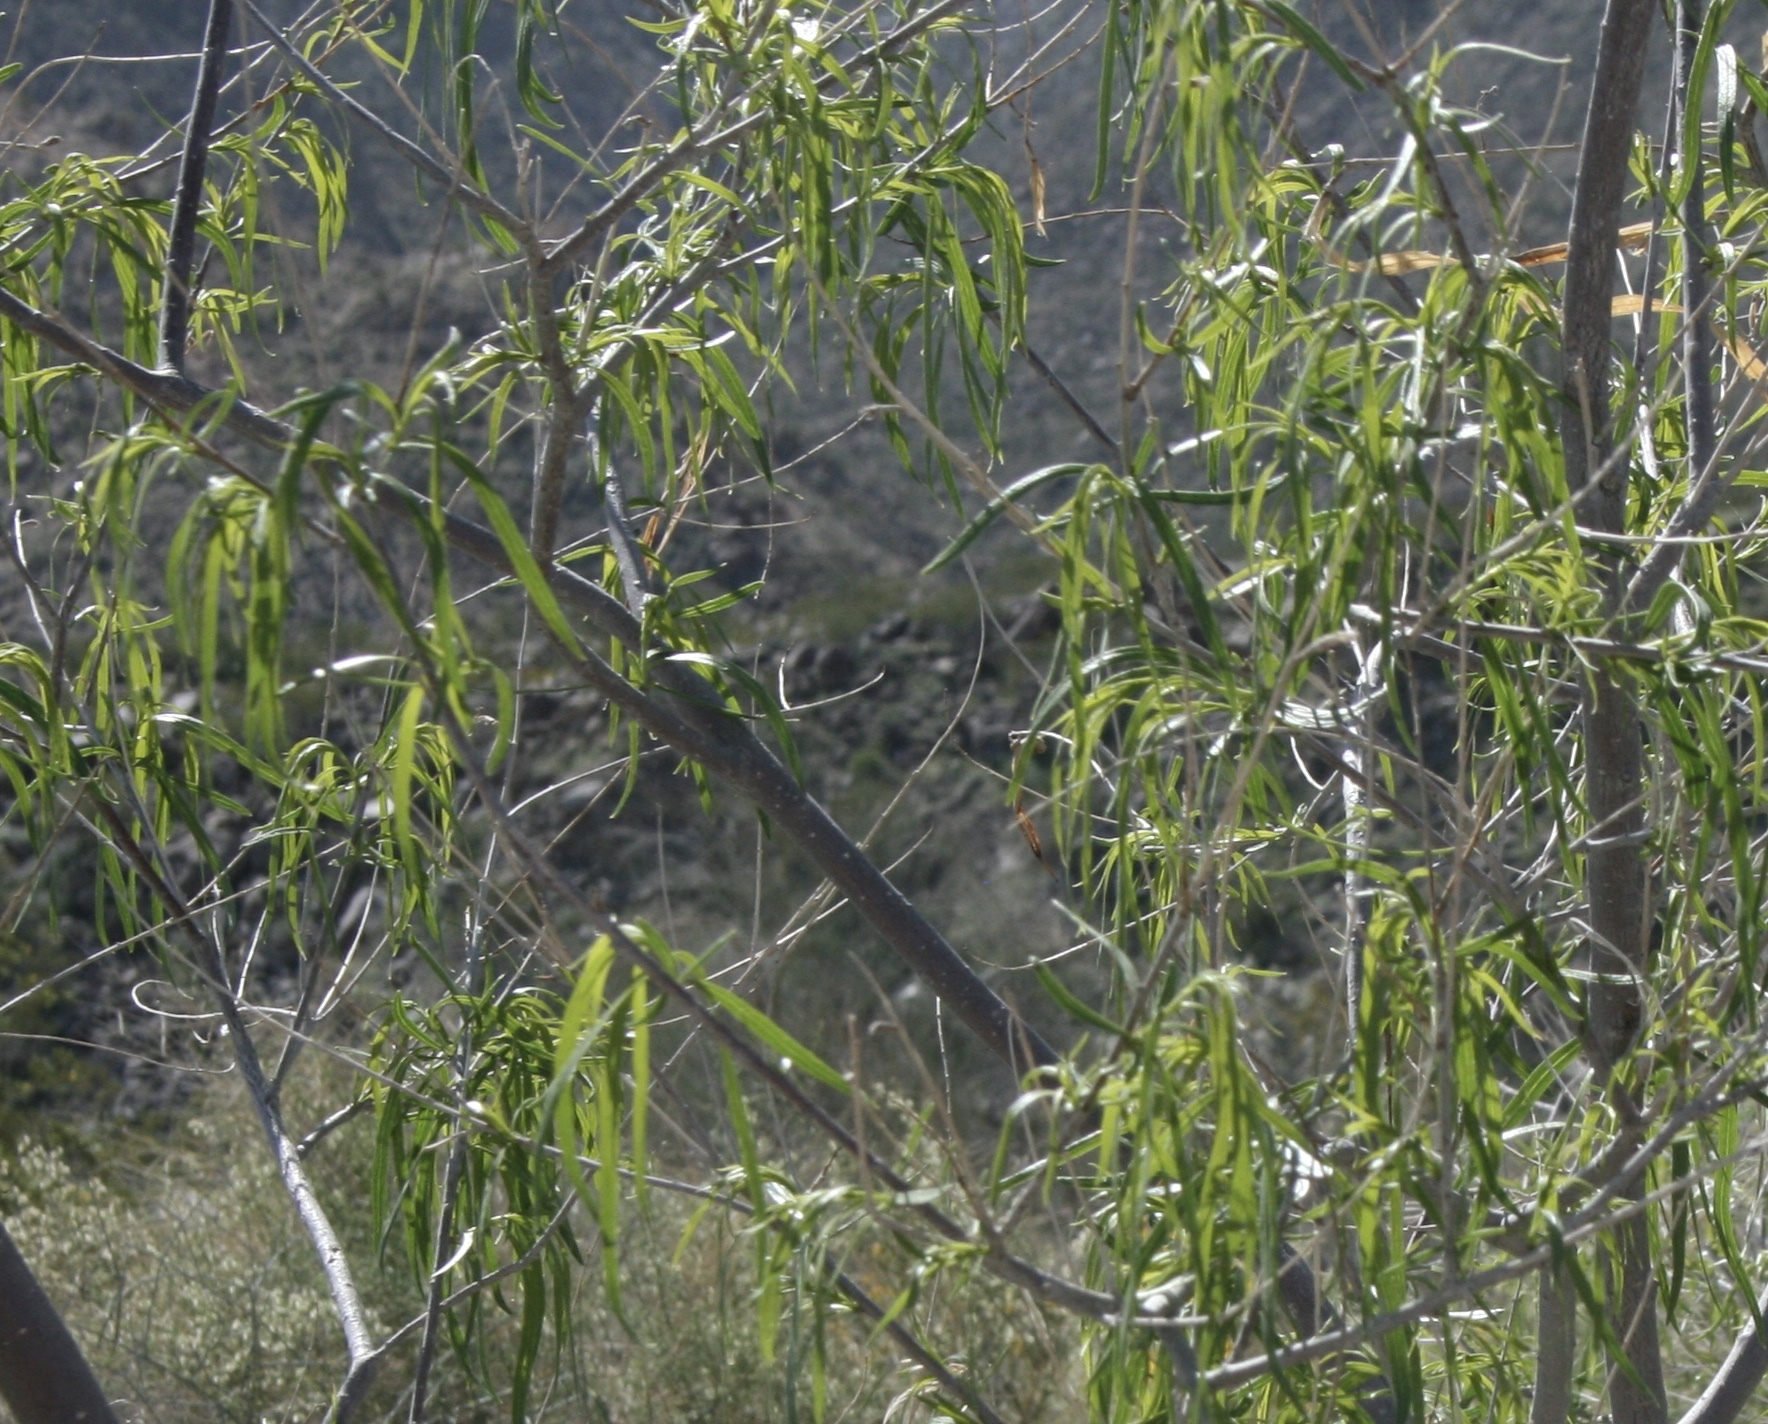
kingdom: Plantae
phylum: Tracheophyta
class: Magnoliopsida
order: Lamiales
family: Bignoniaceae
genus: Chilopsis
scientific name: Chilopsis linearis
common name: Desert-willow
